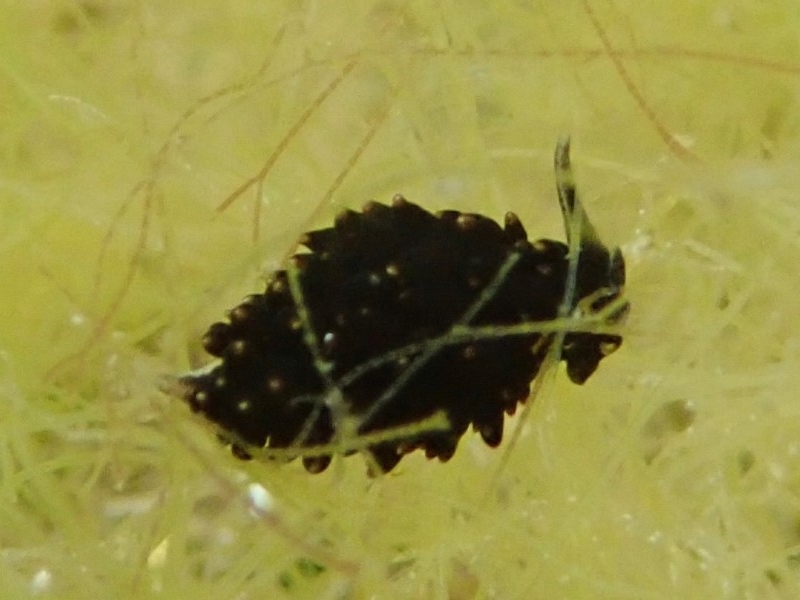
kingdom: Animalia
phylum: Mollusca
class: Gastropoda
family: Limapontiidae
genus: Ercolania
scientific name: Ercolania boodleae
